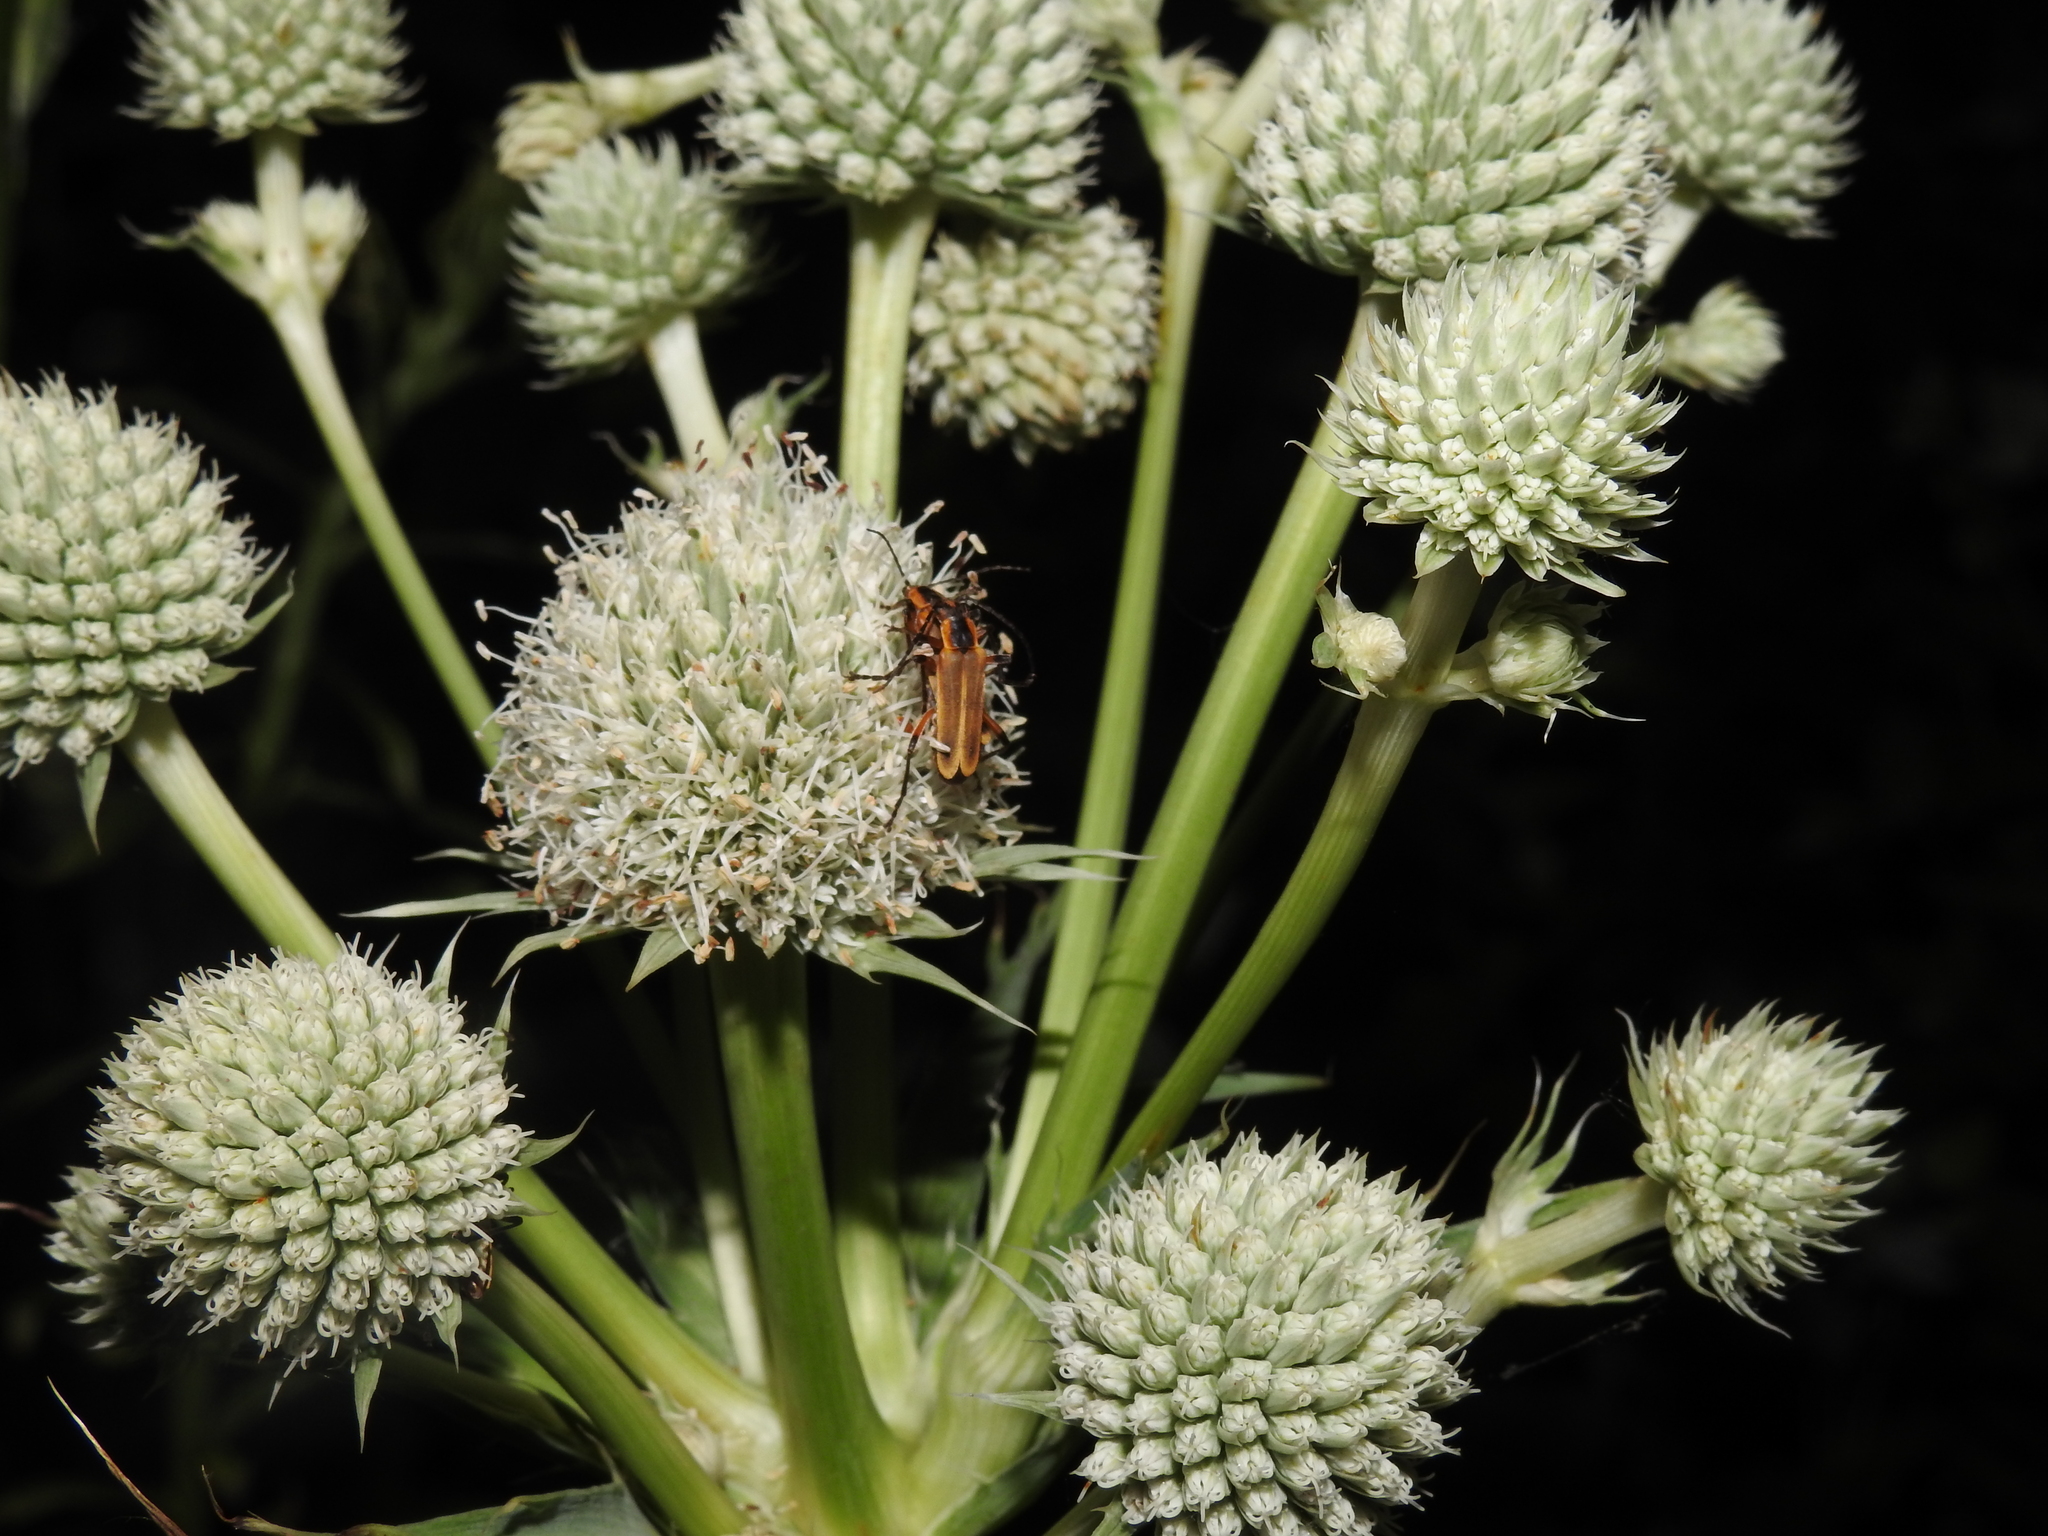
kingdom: Animalia
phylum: Arthropoda
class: Insecta
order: Coleoptera
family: Cantharidae
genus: Chauliognathus
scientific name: Chauliognathus marginatus
